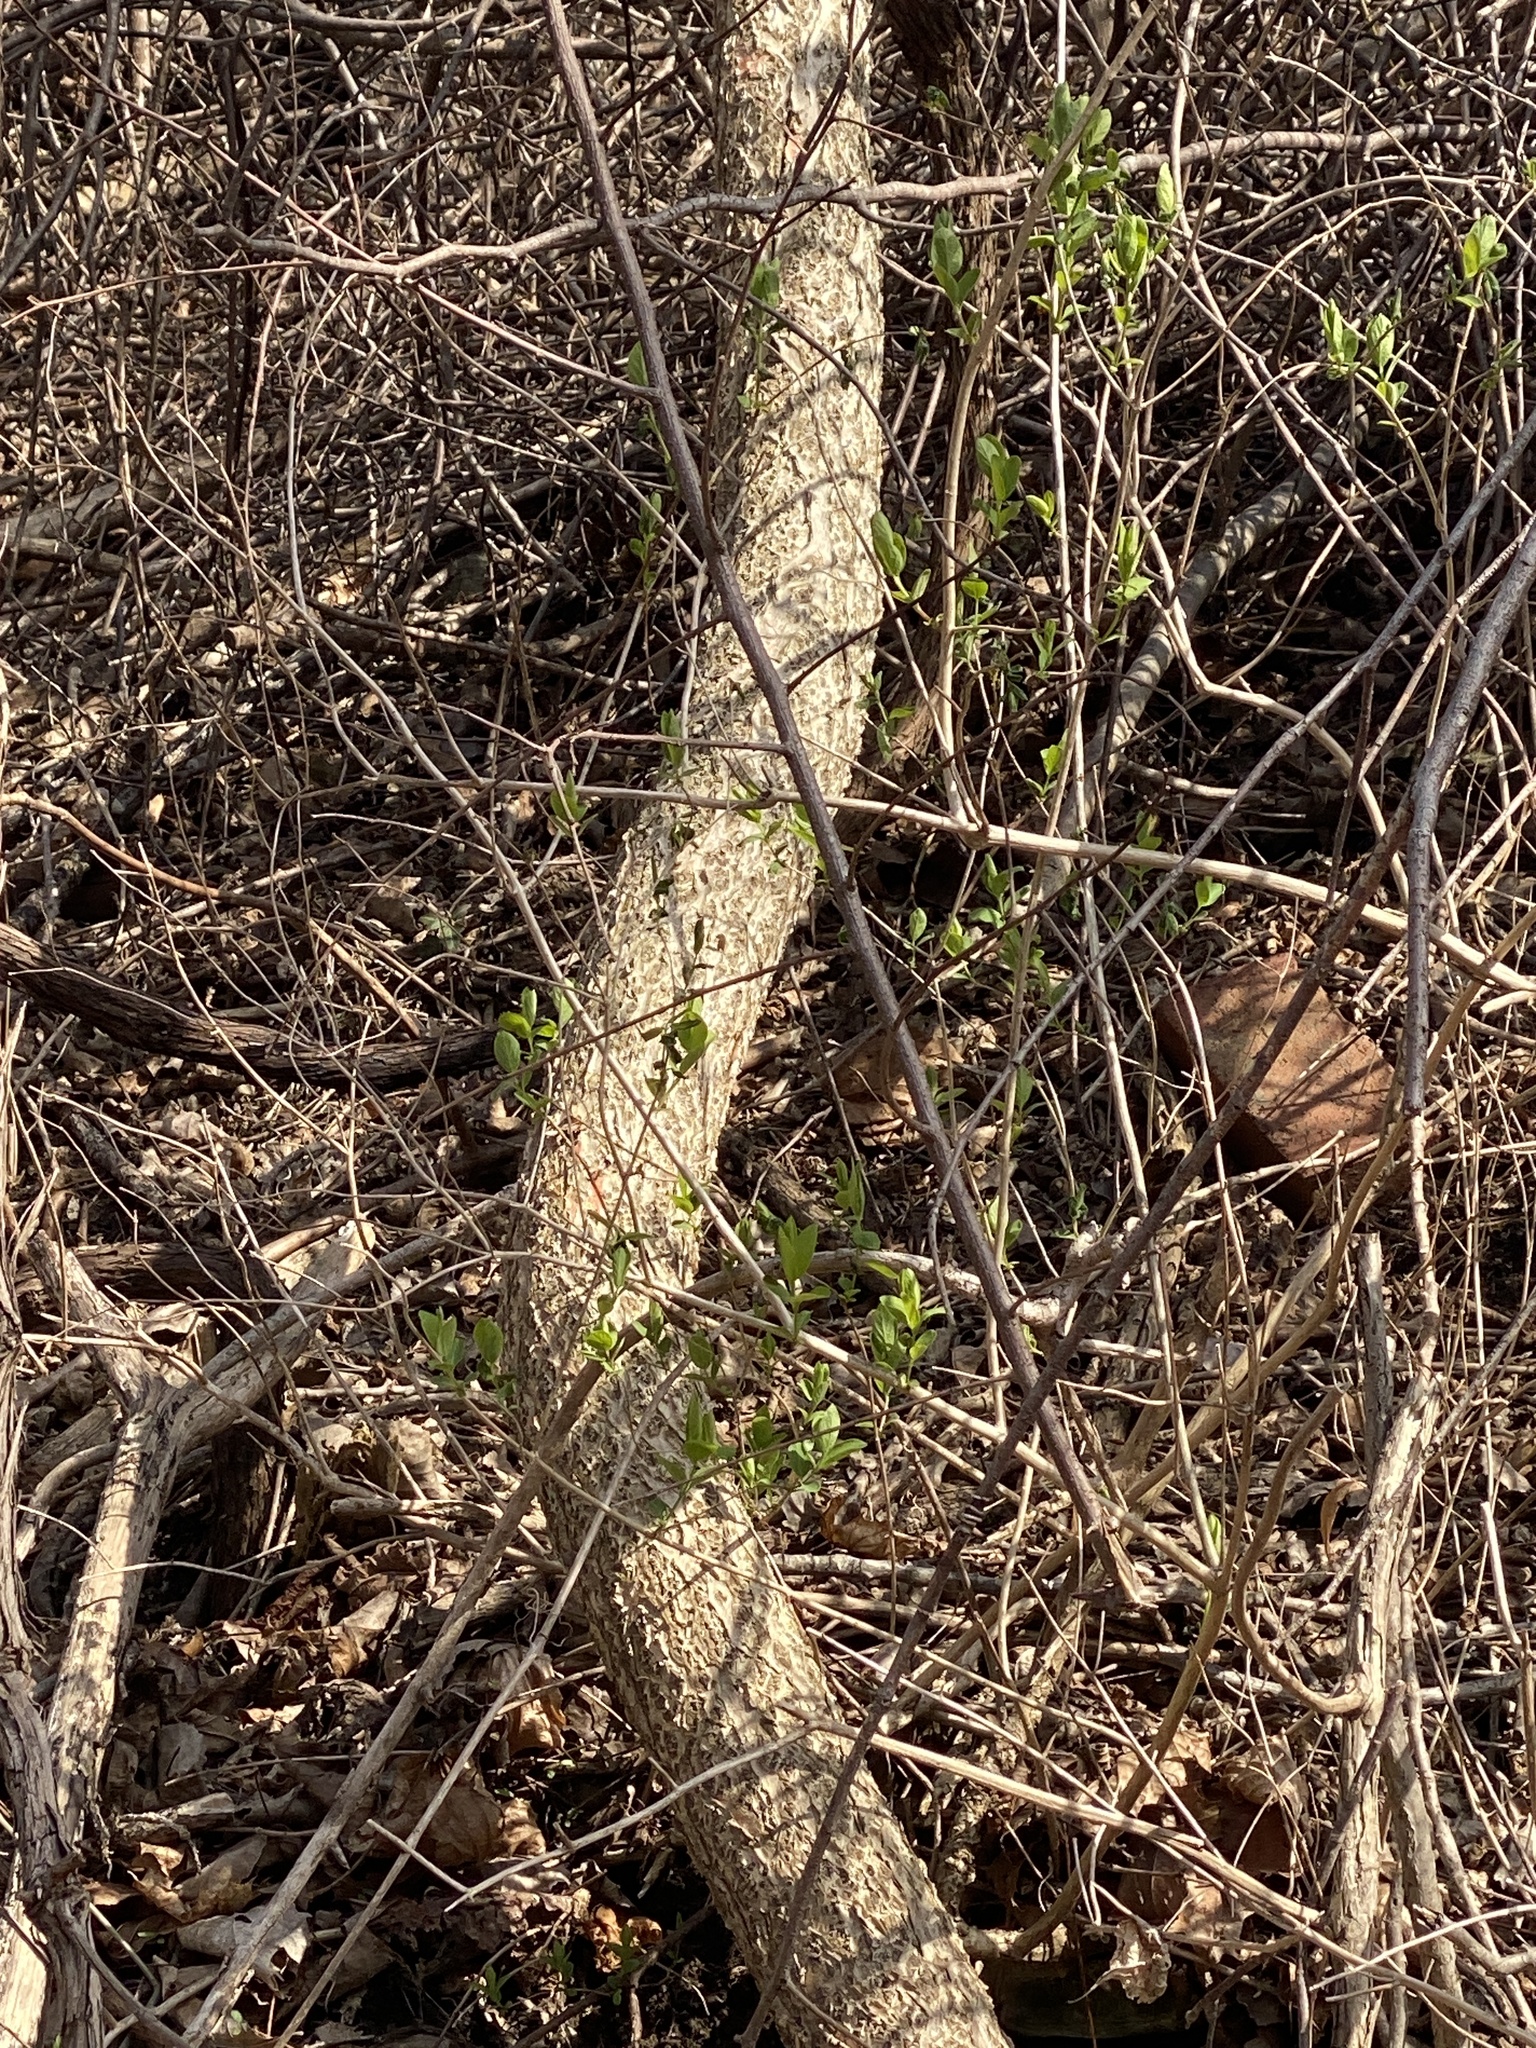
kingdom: Plantae
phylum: Tracheophyta
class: Magnoliopsida
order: Celastrales
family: Celastraceae
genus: Celastrus
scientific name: Celastrus orbiculatus
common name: Oriental bittersweet
